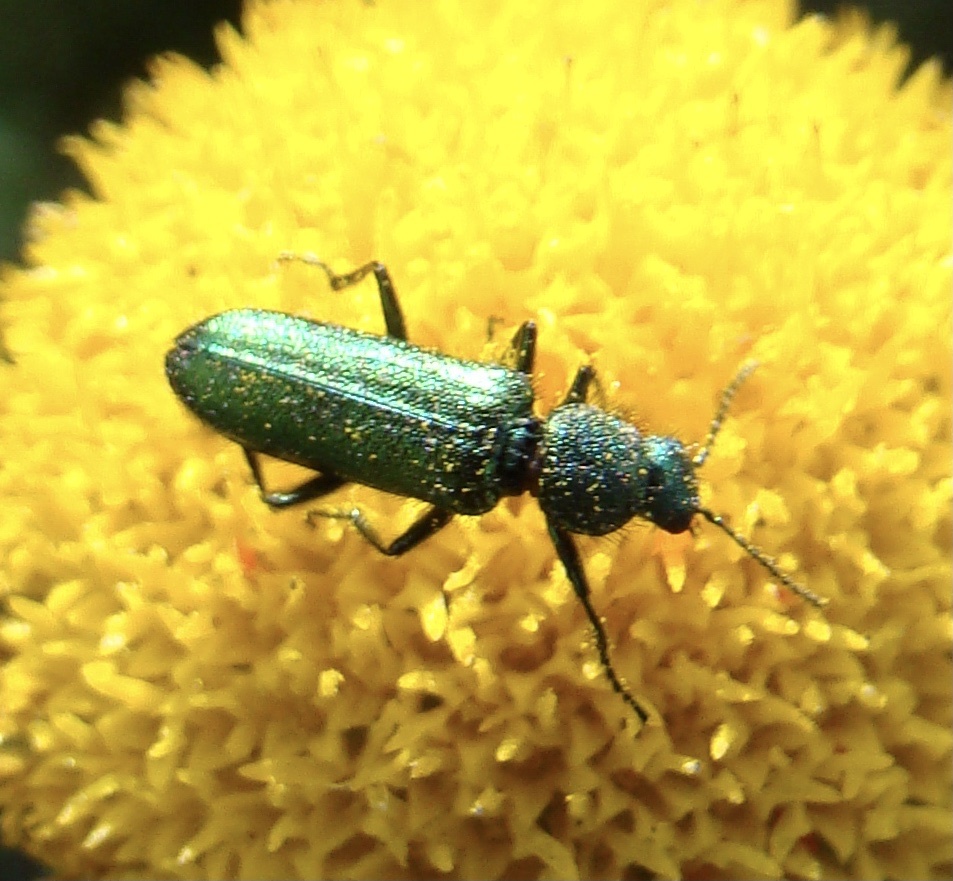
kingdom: Animalia
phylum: Arthropoda
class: Insecta
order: Coleoptera
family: Dasytidae
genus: Psilothrix
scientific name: Psilothrix viridicoerulea
